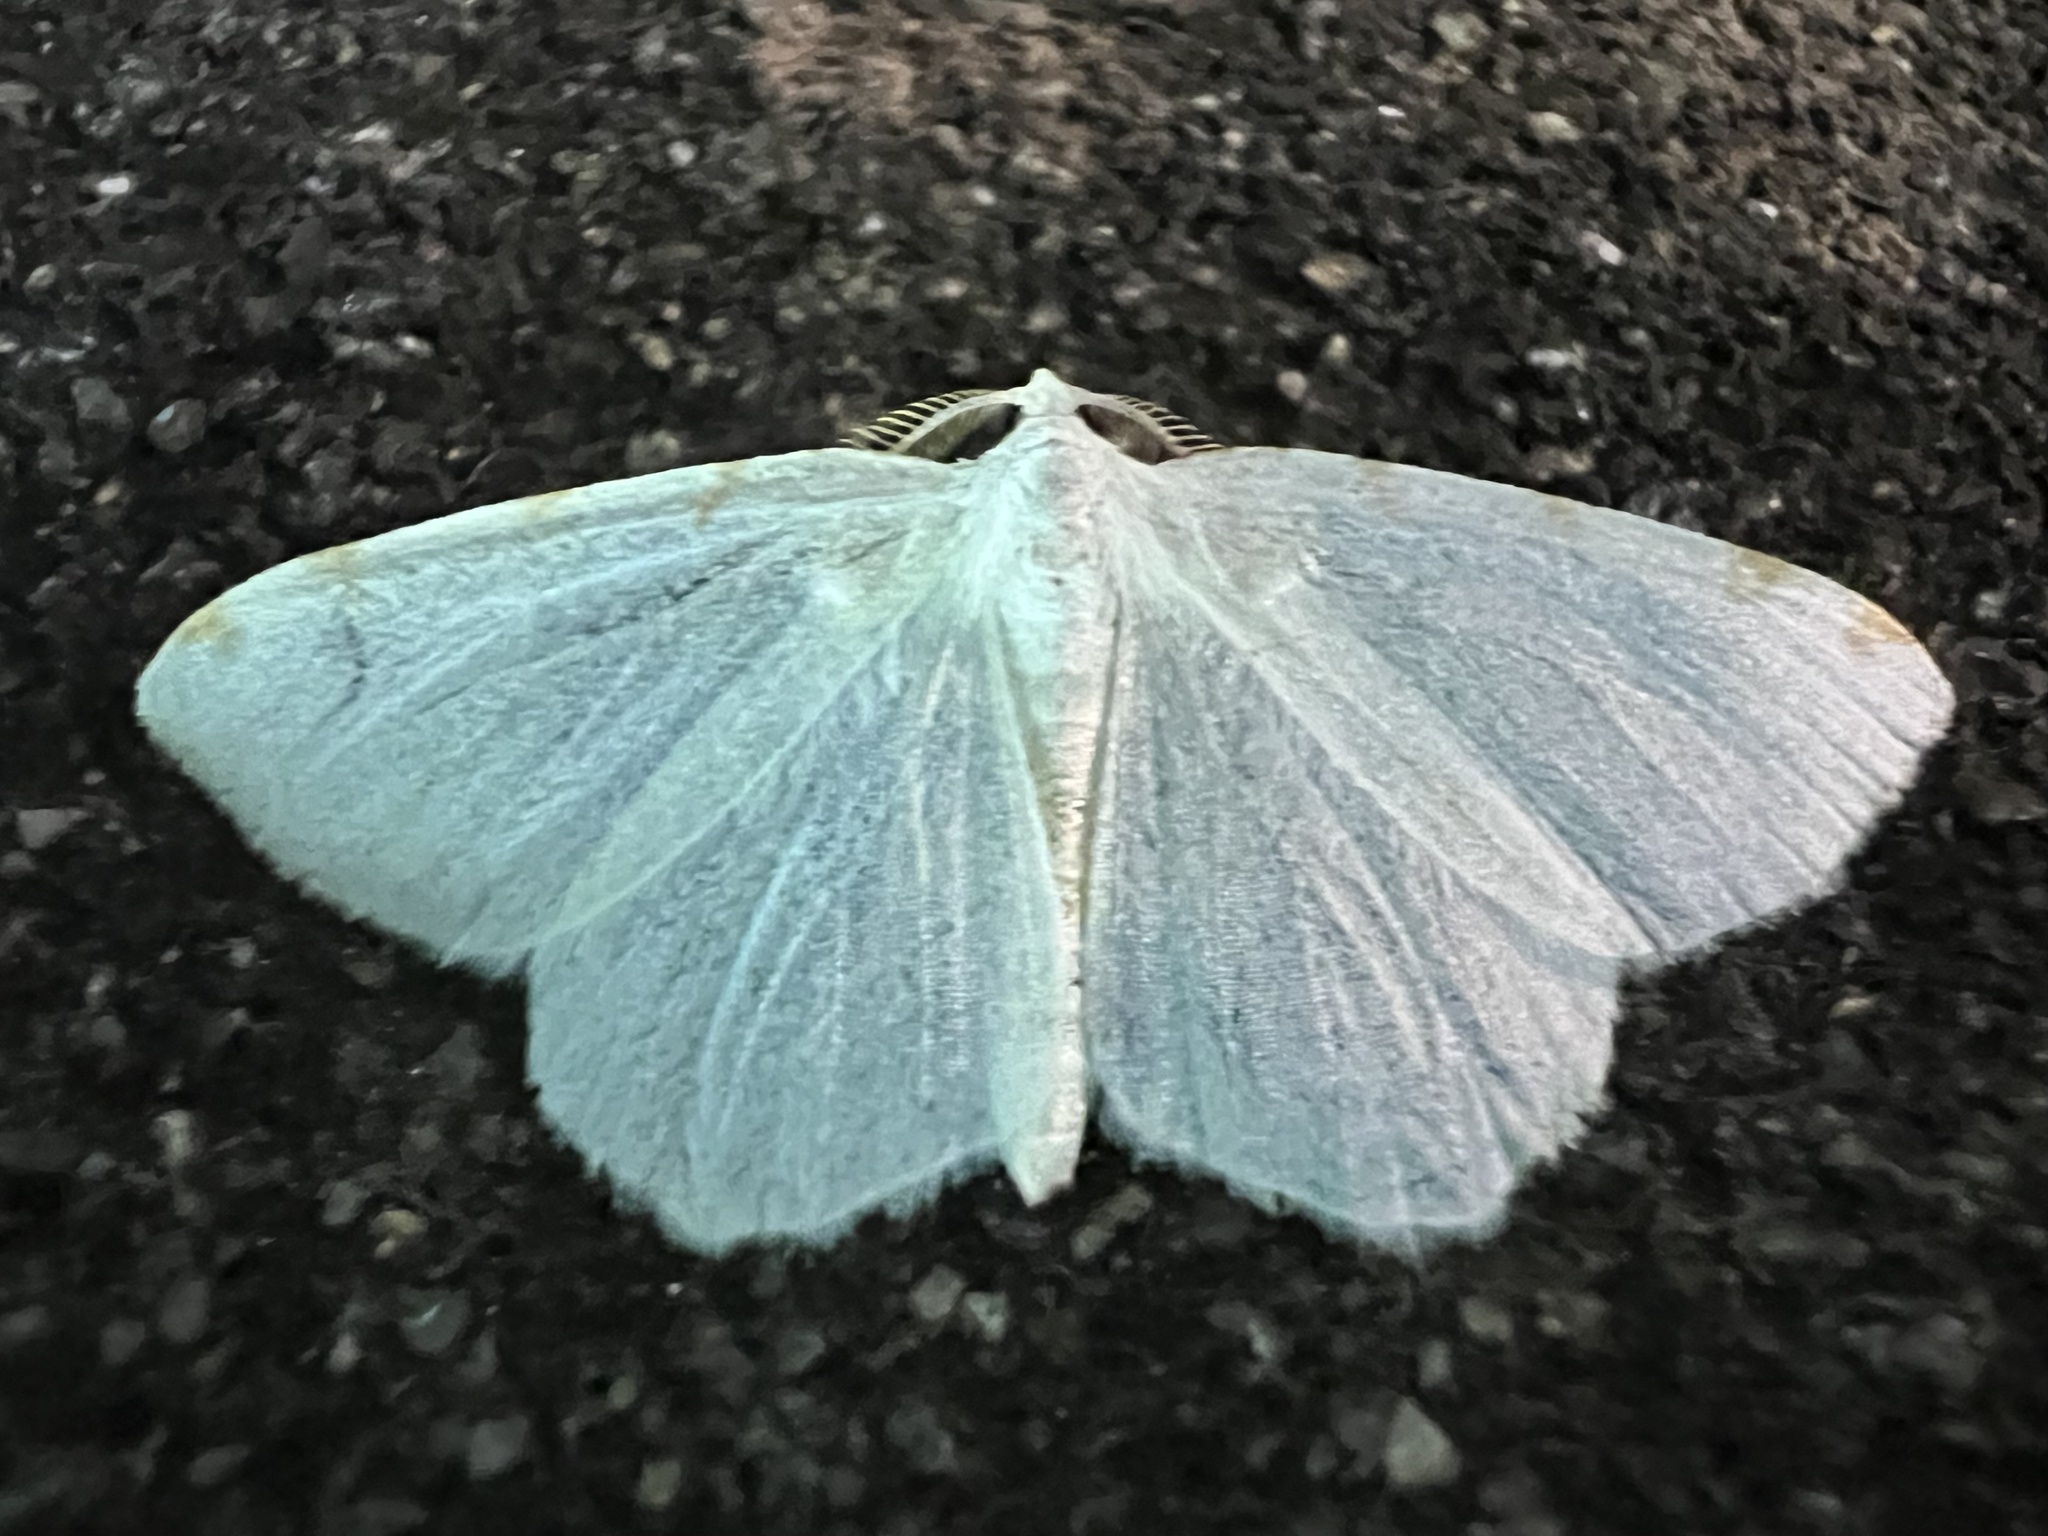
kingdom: Animalia
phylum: Arthropoda
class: Insecta
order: Lepidoptera
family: Geometridae
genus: Macaria
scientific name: Macaria pustularia
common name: Lesser maple spanworm moth
